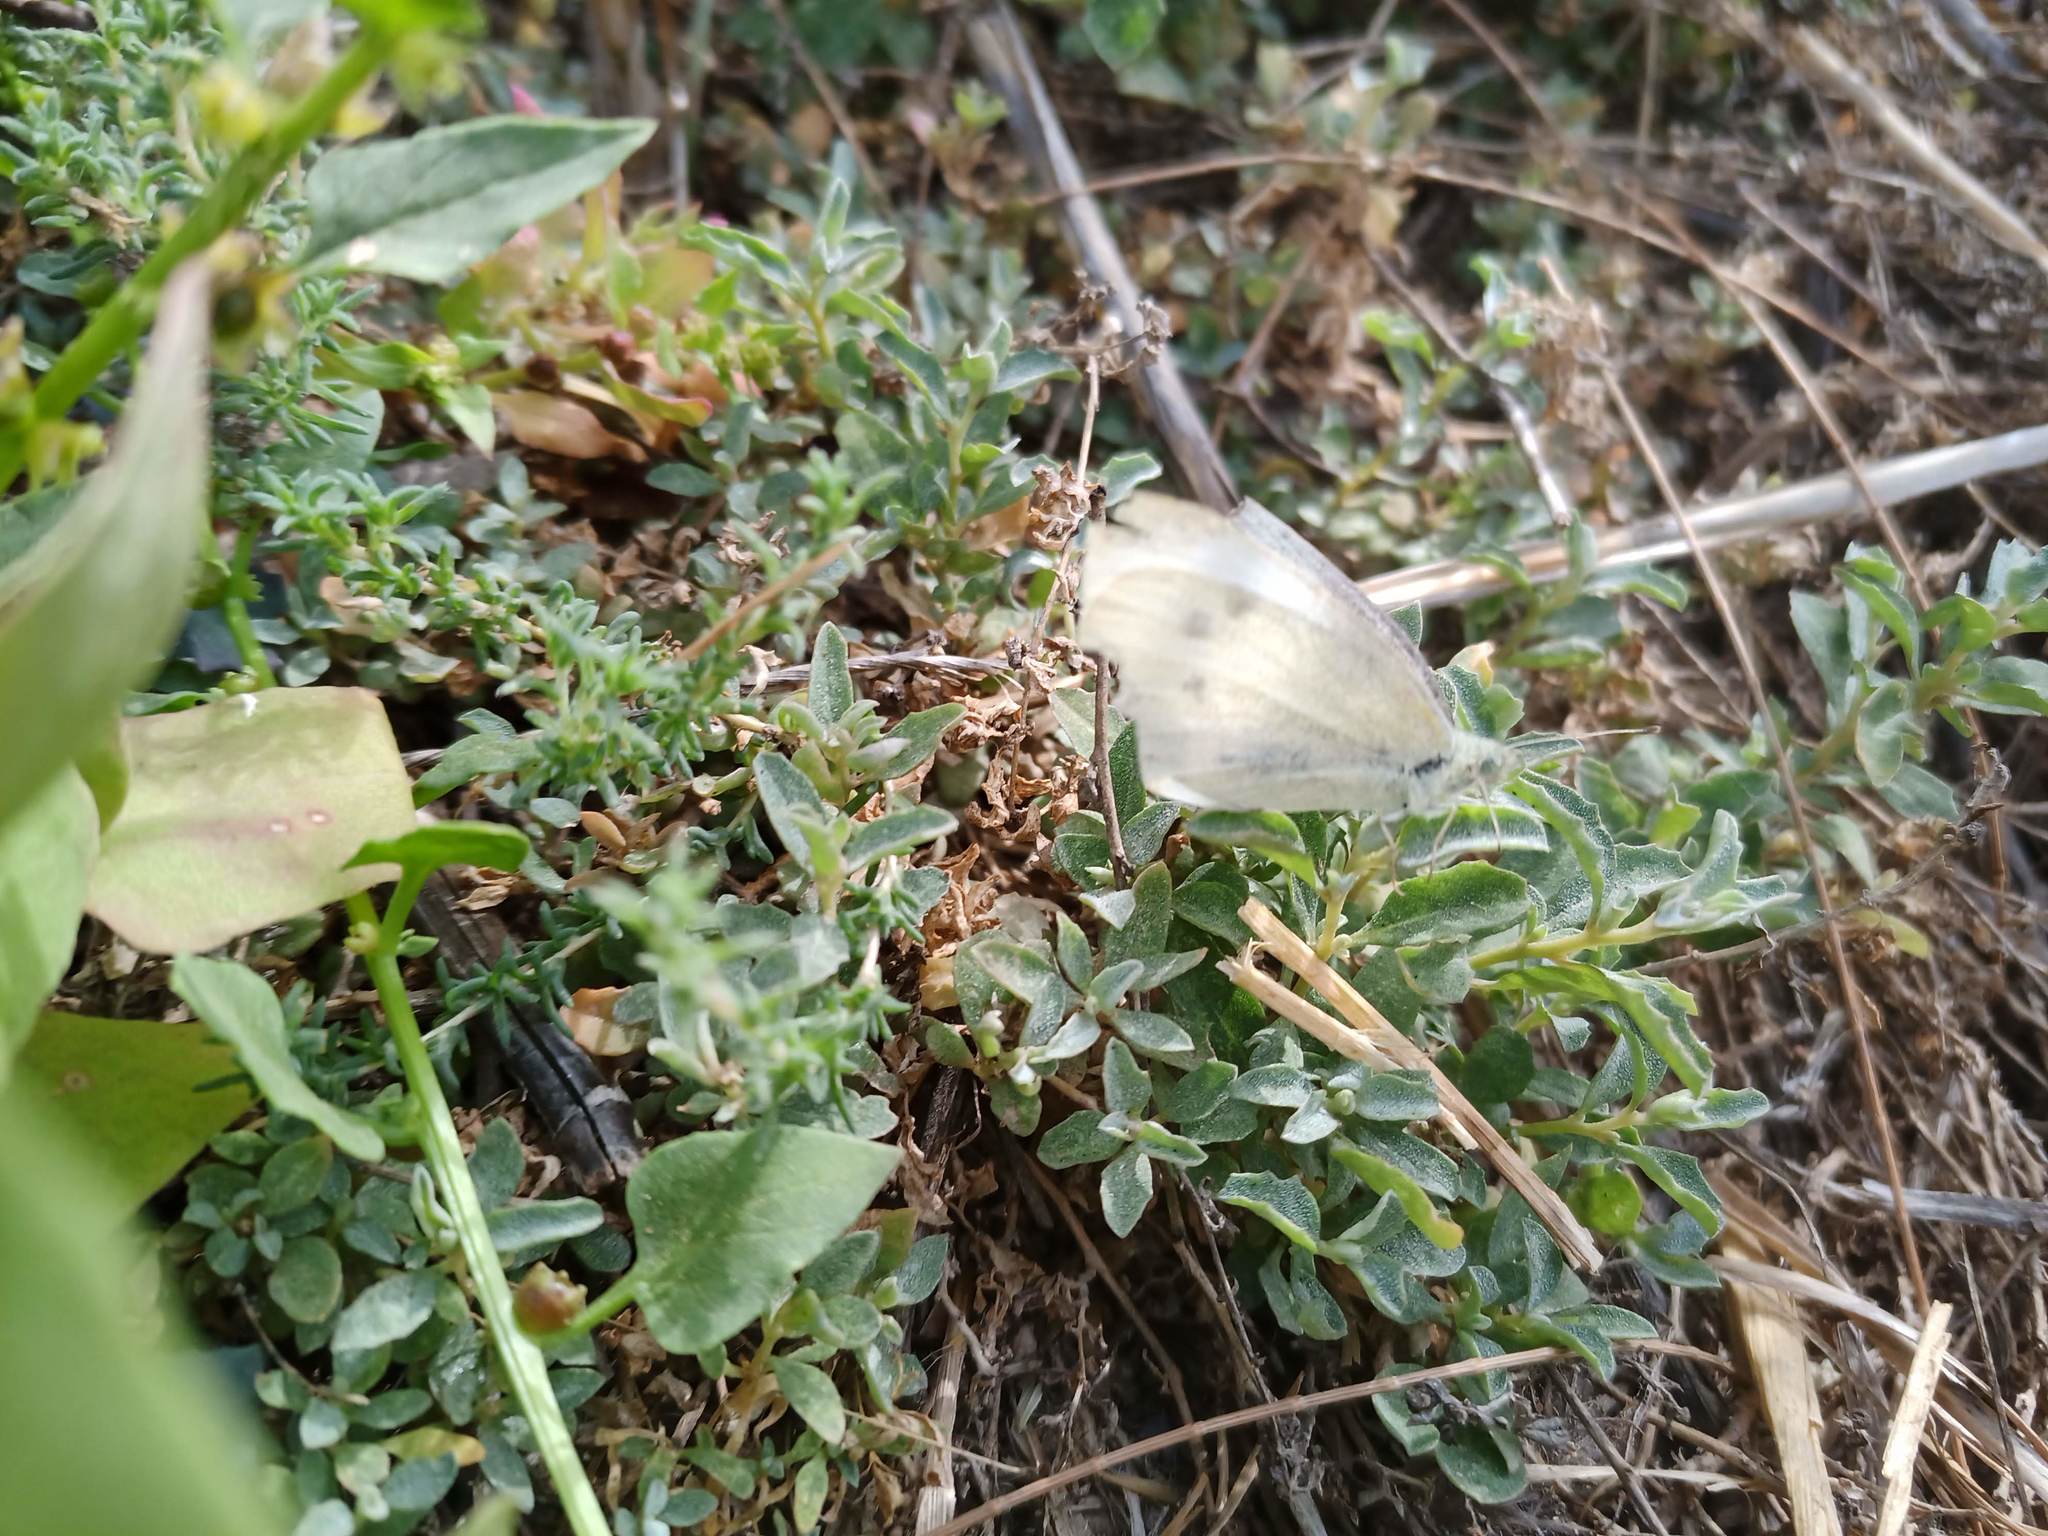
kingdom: Animalia
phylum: Arthropoda
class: Insecta
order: Lepidoptera
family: Pieridae
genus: Pieris
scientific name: Pieris rapae
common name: Small white
